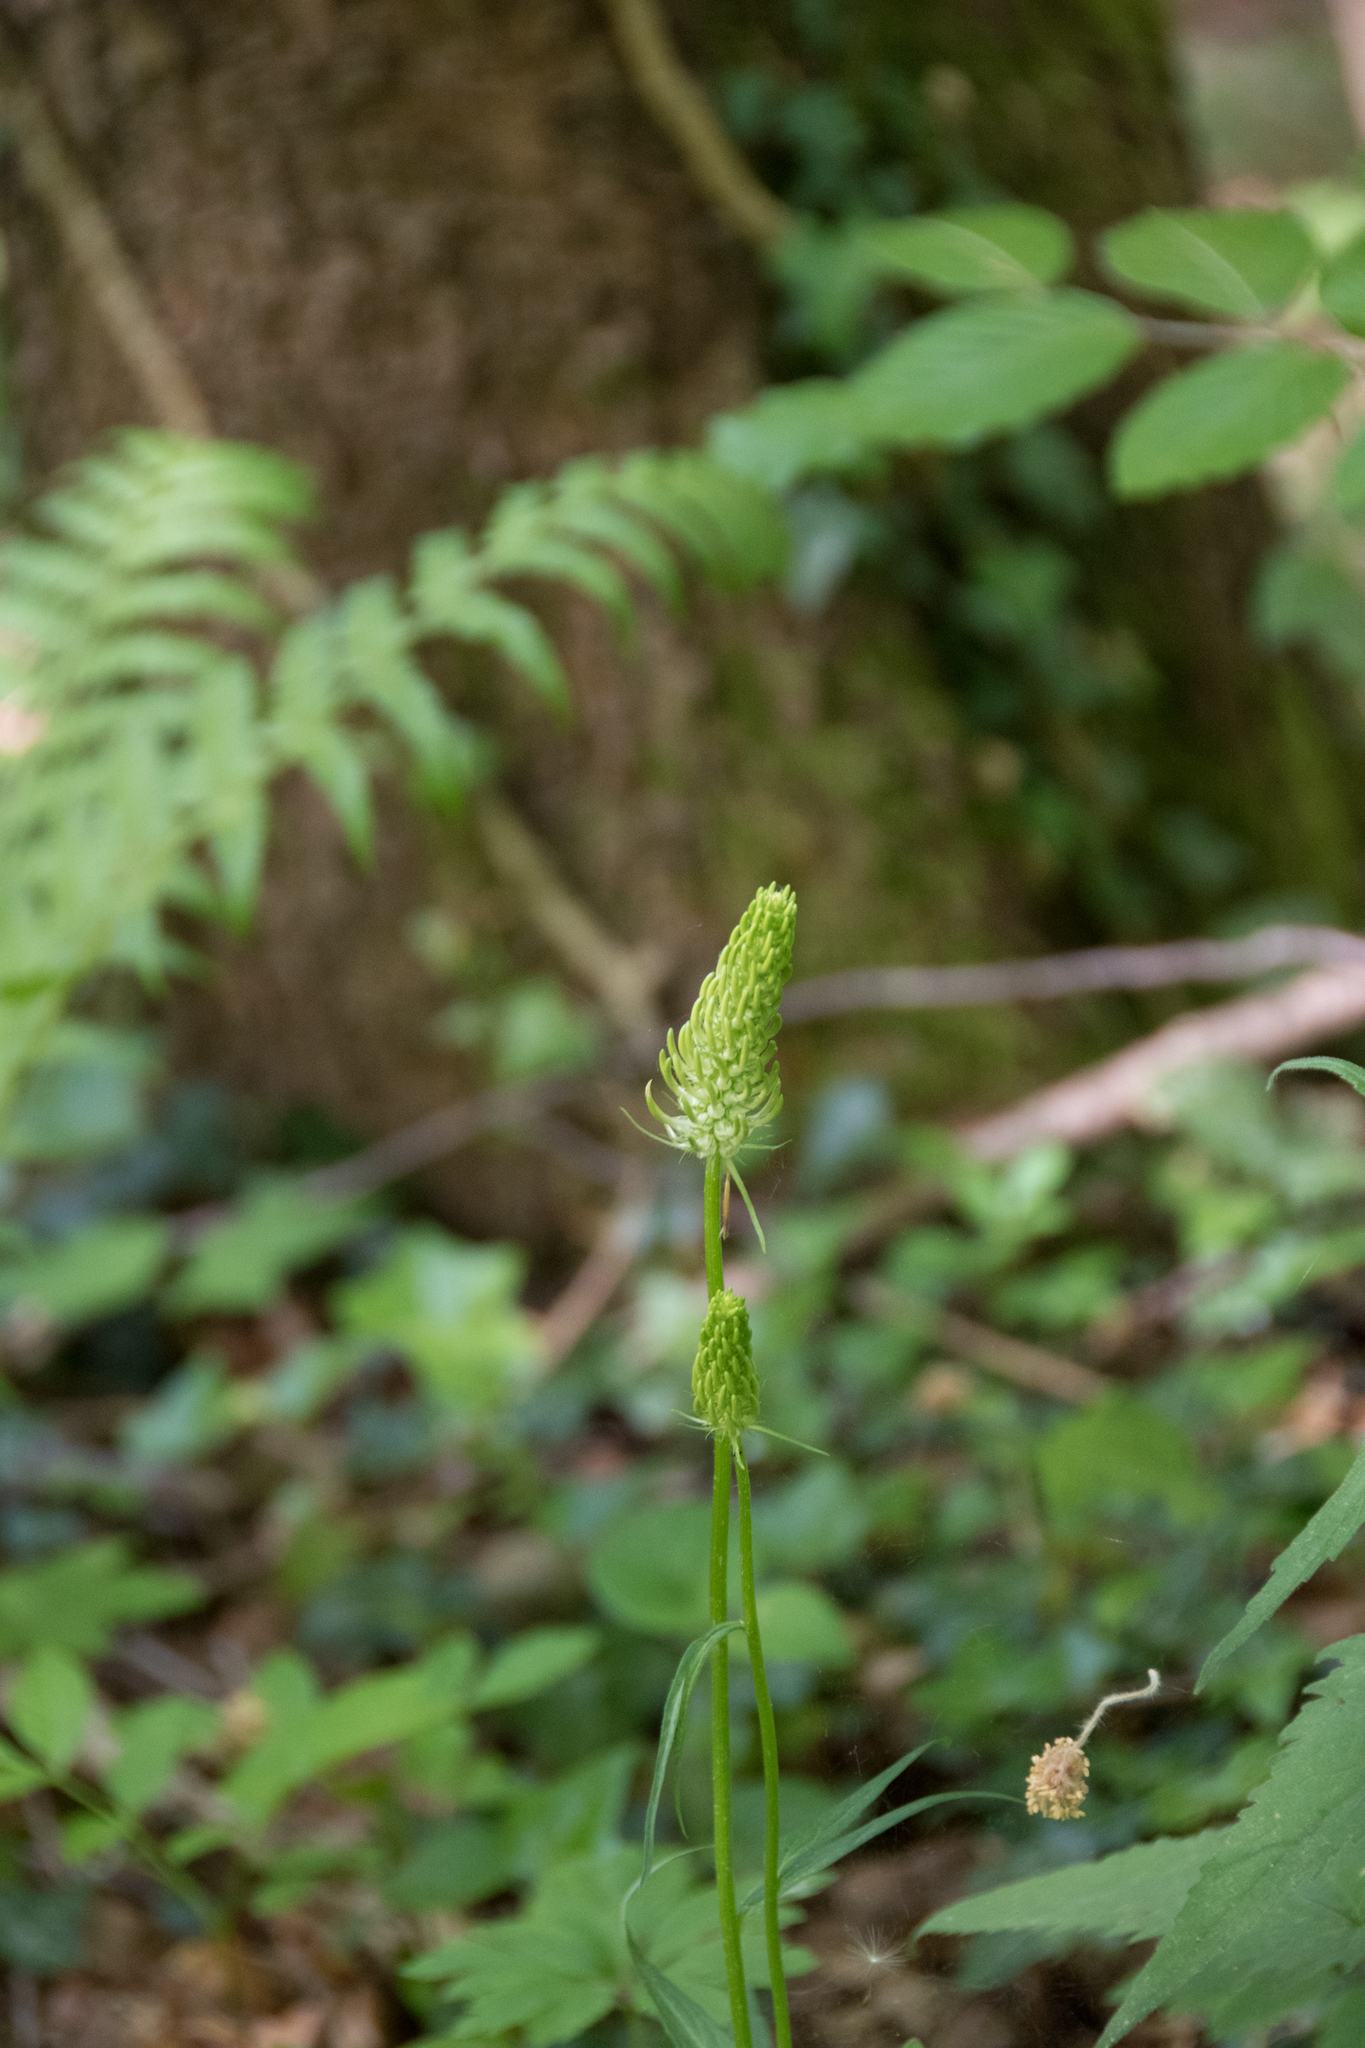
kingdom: Plantae
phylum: Tracheophyta
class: Magnoliopsida
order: Asterales
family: Campanulaceae
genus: Phyteuma
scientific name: Phyteuma spicatum
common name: Spiked rampion
